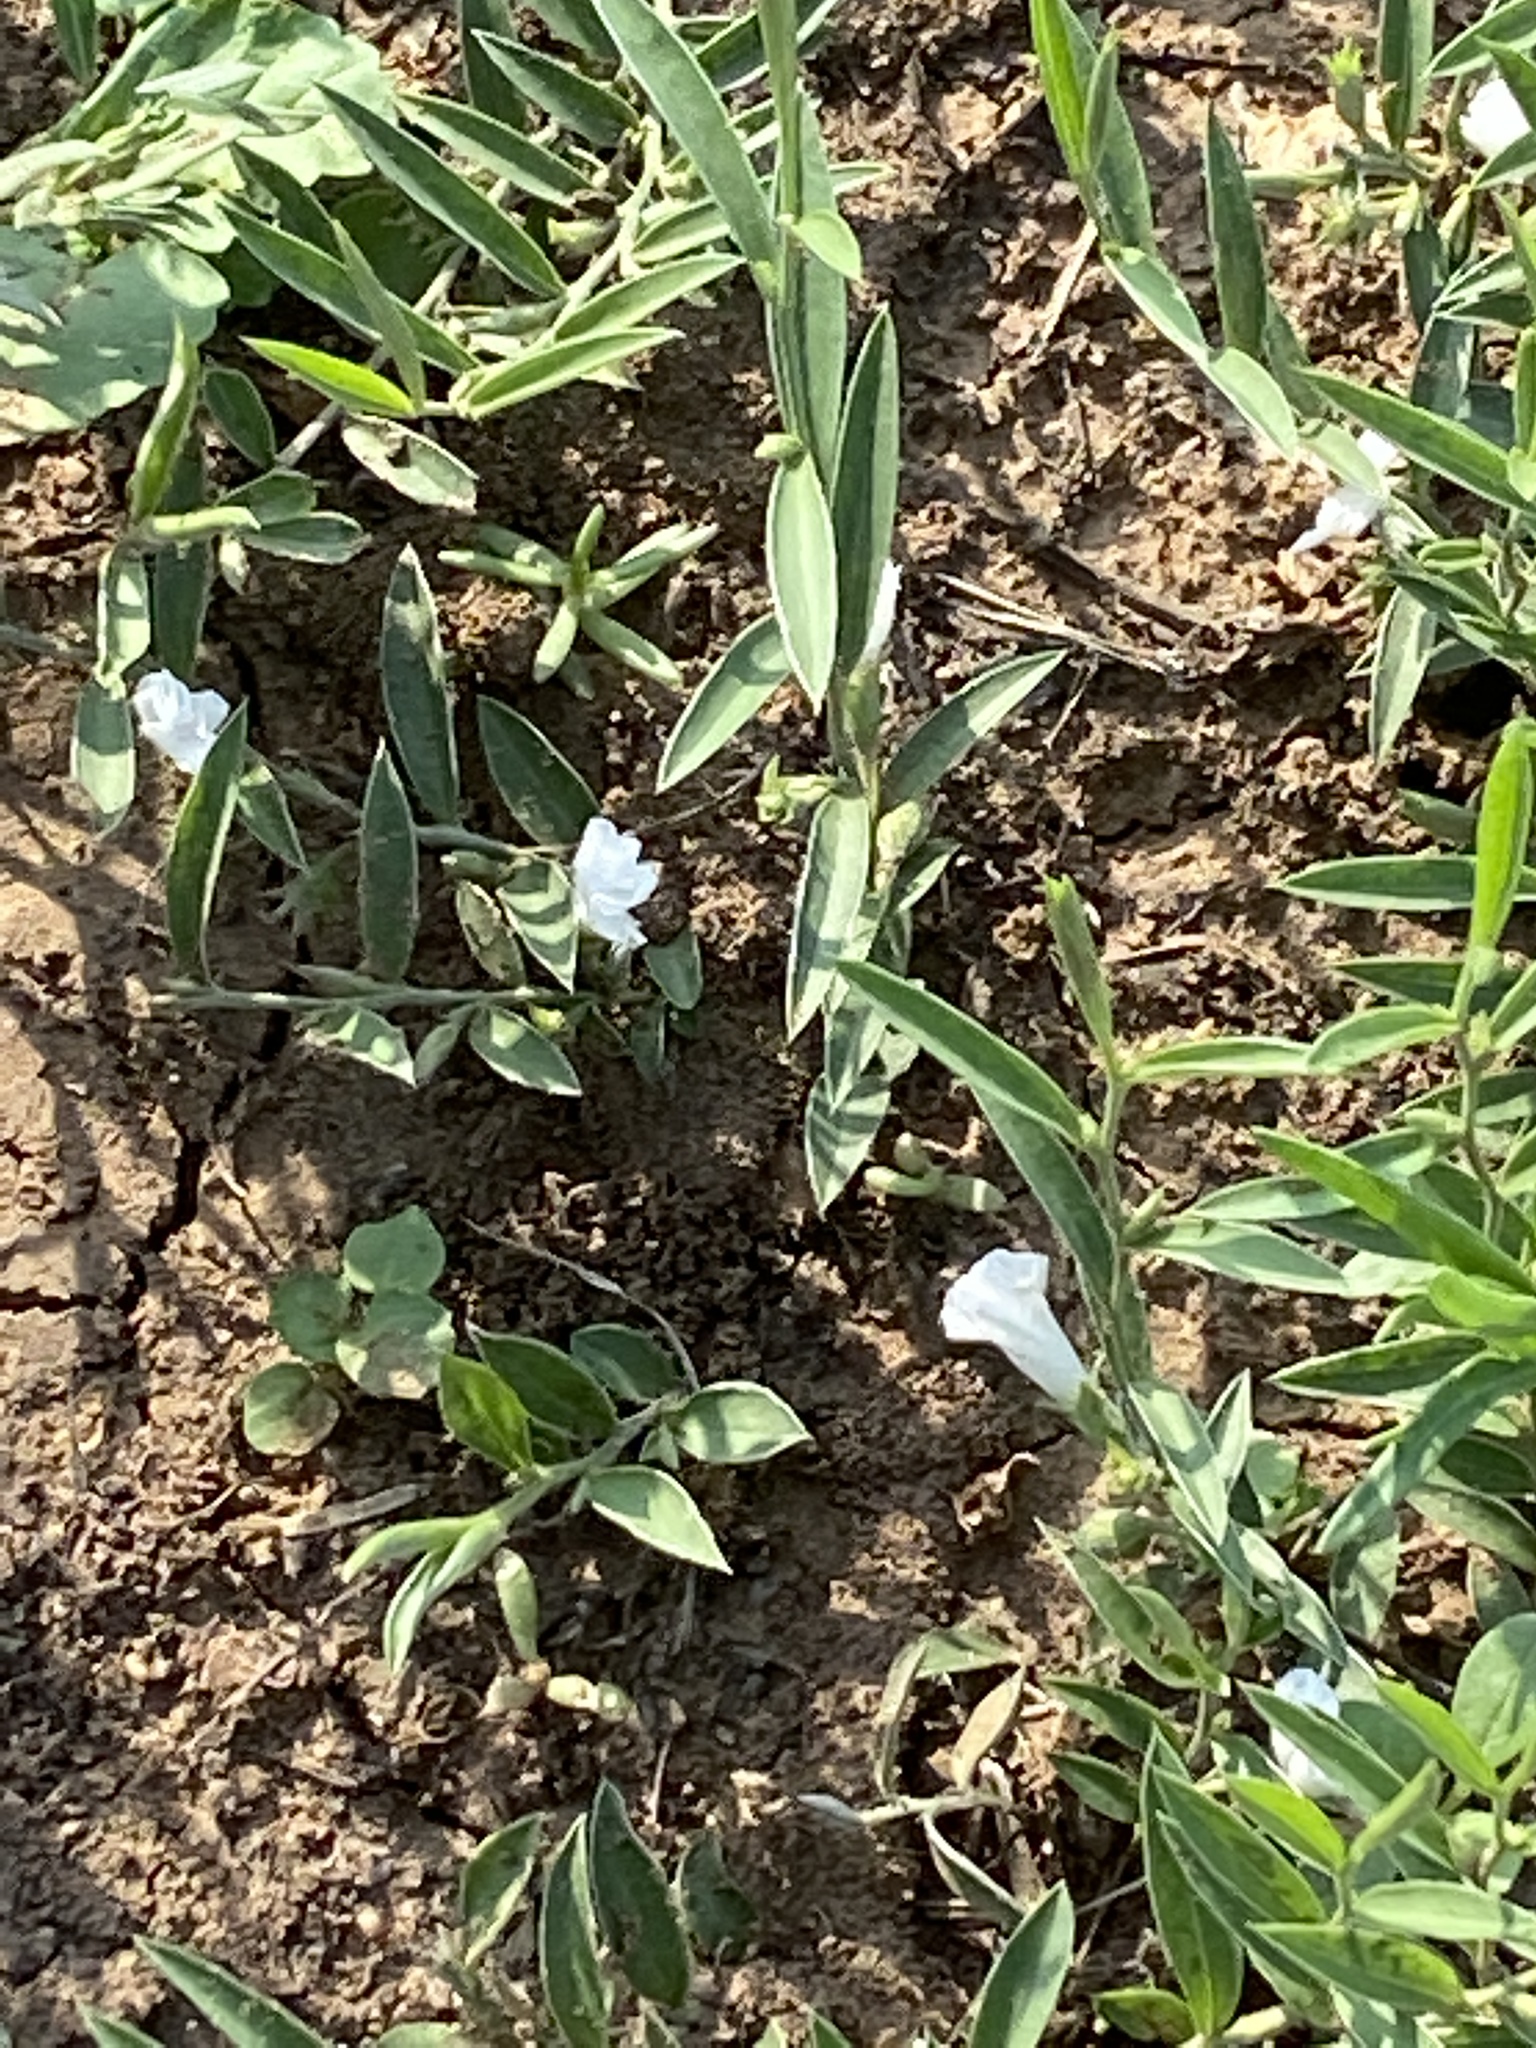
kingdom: Plantae
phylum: Tracheophyta
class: Magnoliopsida
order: Solanales
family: Convolvulaceae
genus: Evolvulus
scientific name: Evolvulus sericeus
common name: Blue dots
